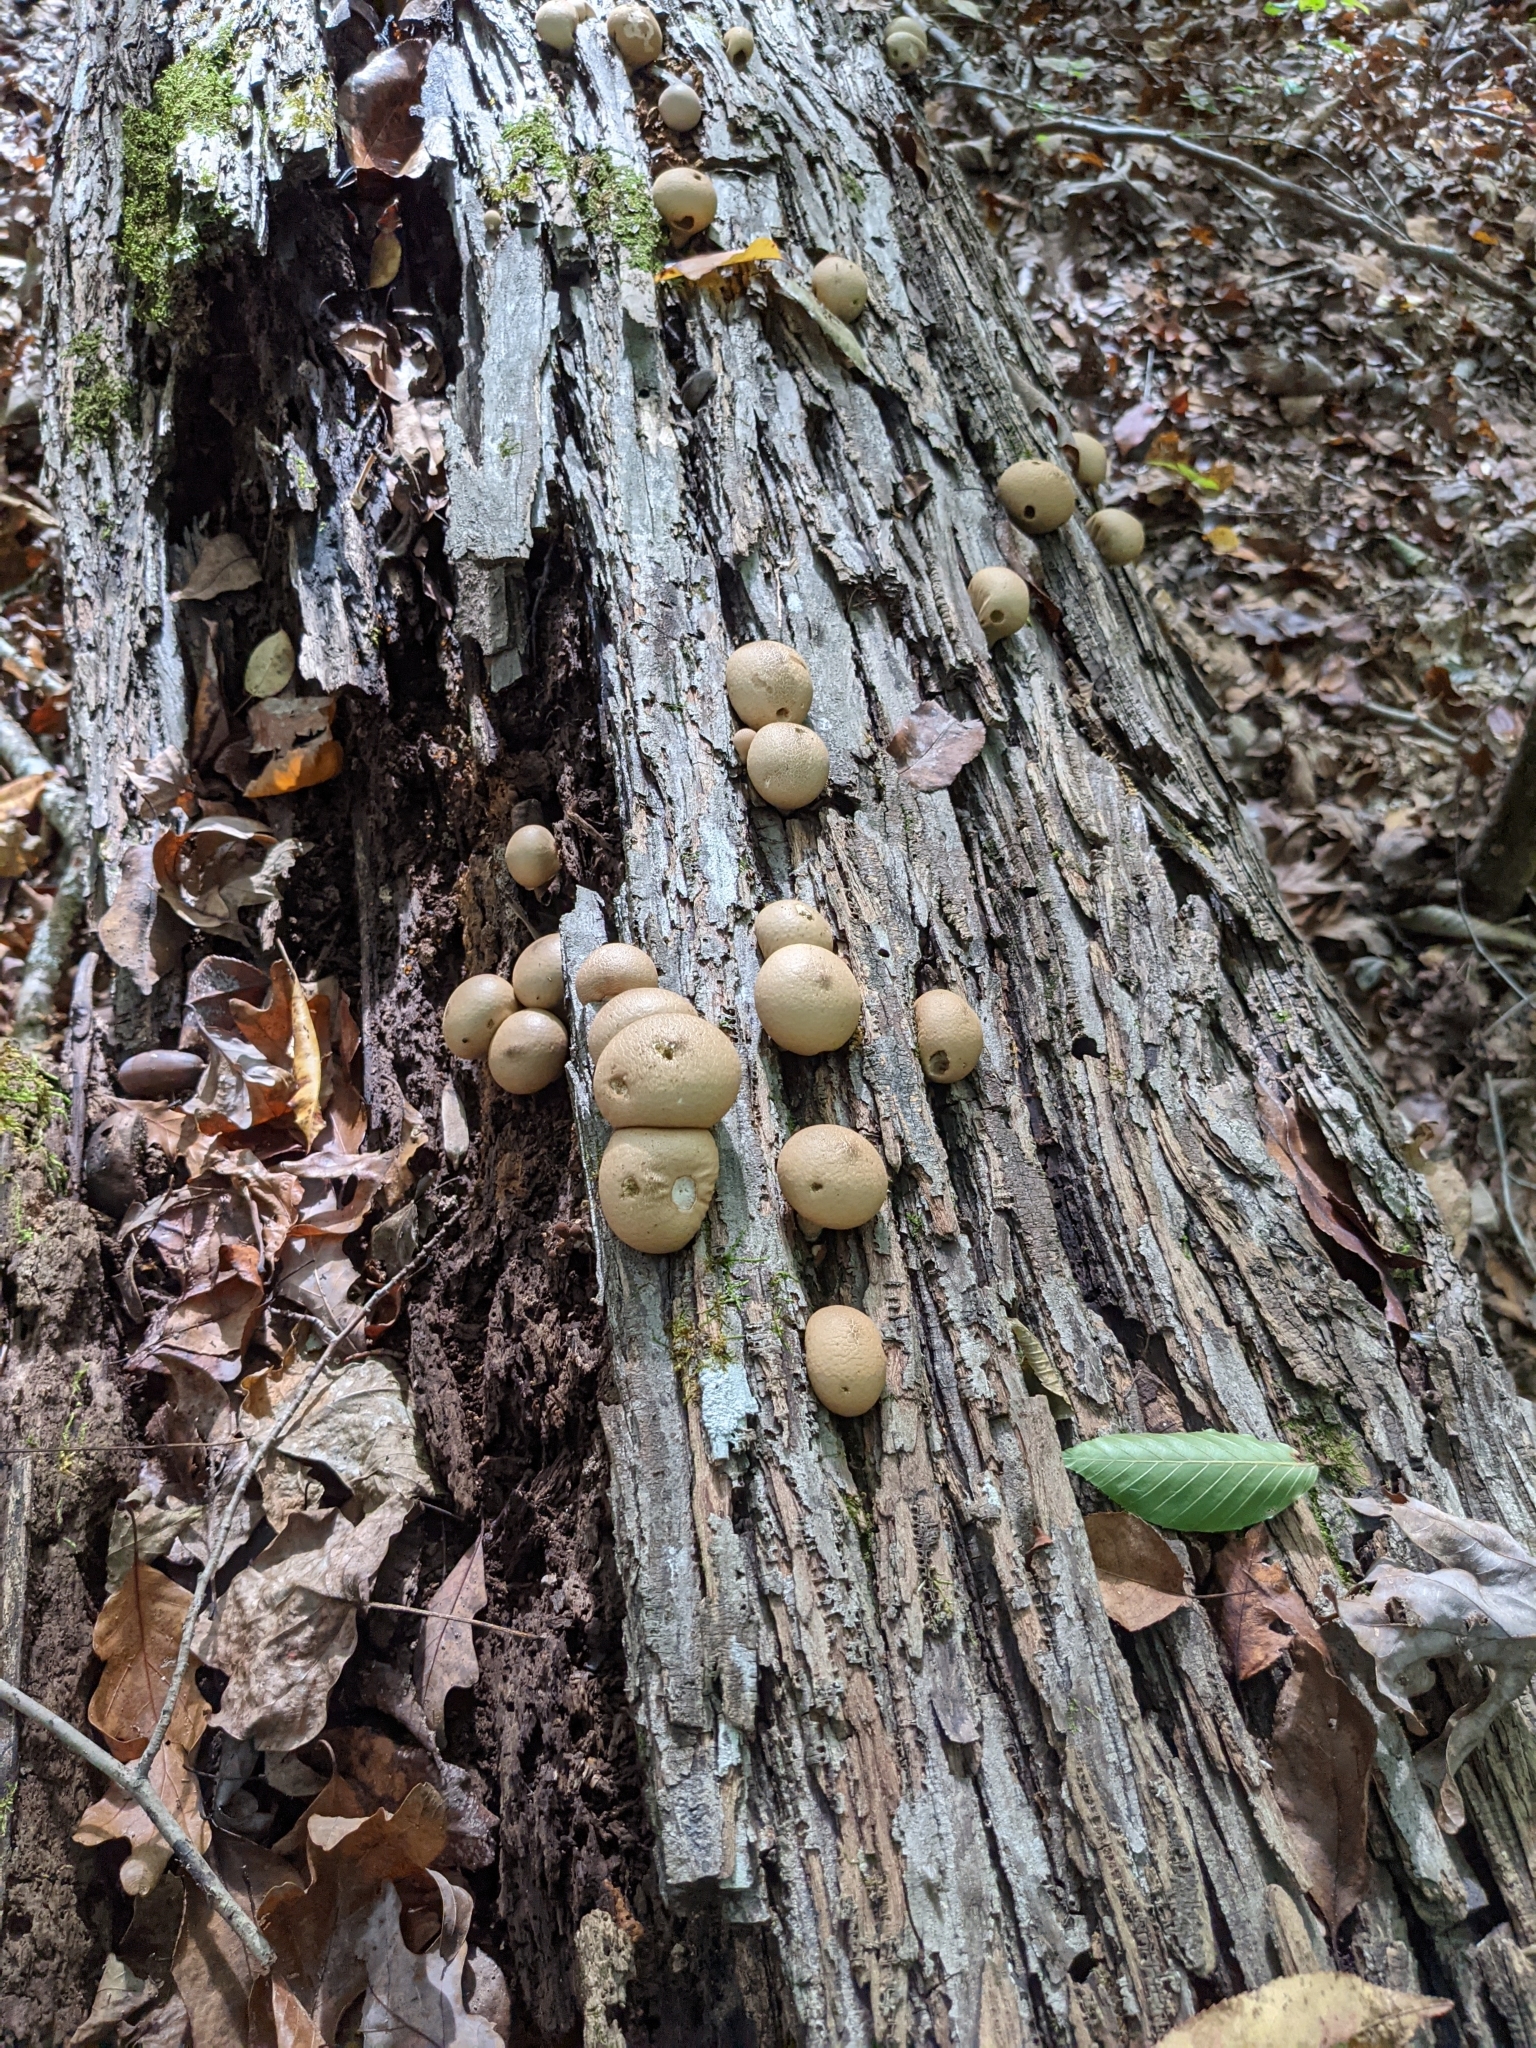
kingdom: Fungi
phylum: Basidiomycota
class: Agaricomycetes
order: Agaricales
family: Lycoperdaceae
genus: Apioperdon
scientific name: Apioperdon pyriforme
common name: Pear-shaped puffball
